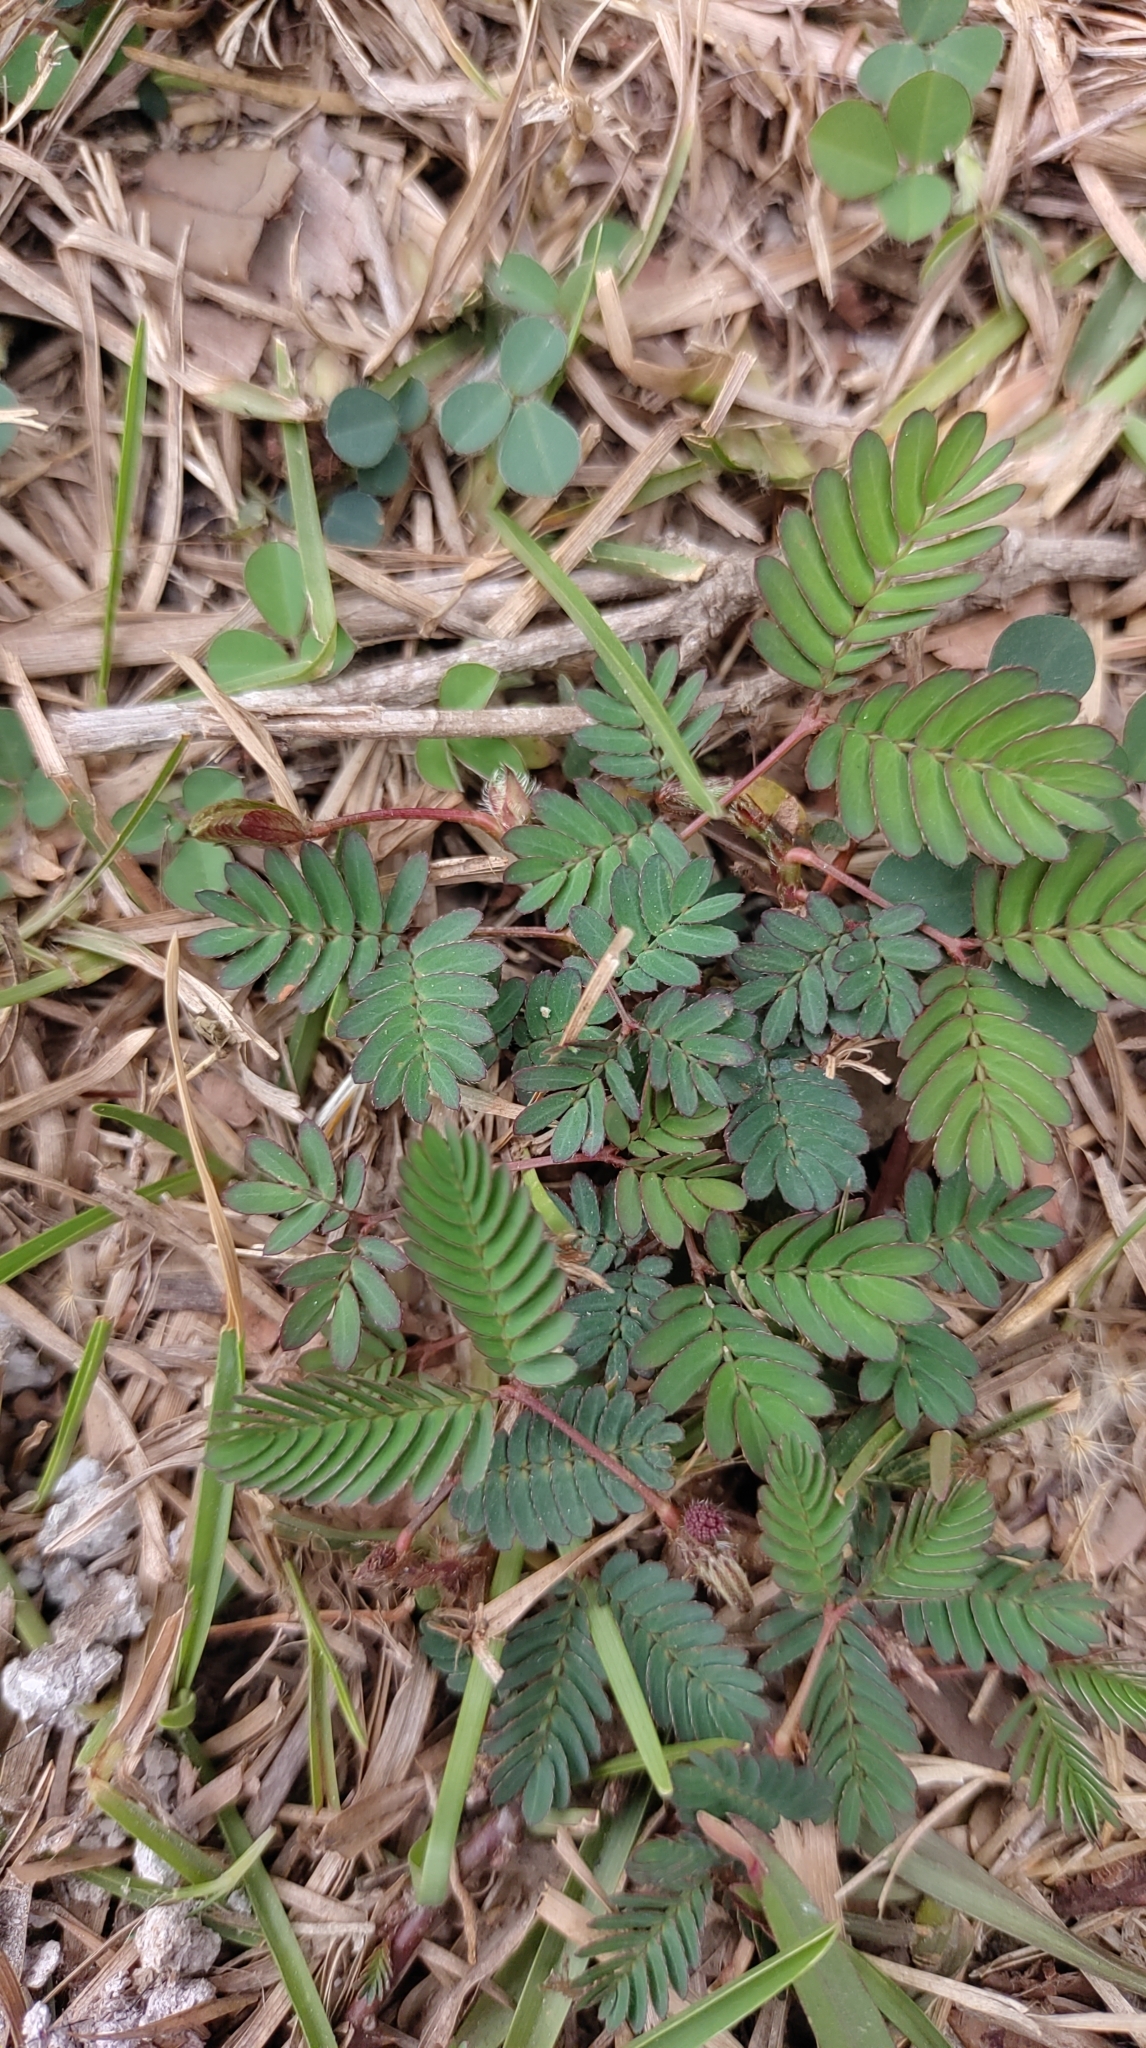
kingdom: Plantae
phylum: Tracheophyta
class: Magnoliopsida
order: Fabales
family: Fabaceae
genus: Mimosa
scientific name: Mimosa pudica
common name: Sensitive plant
